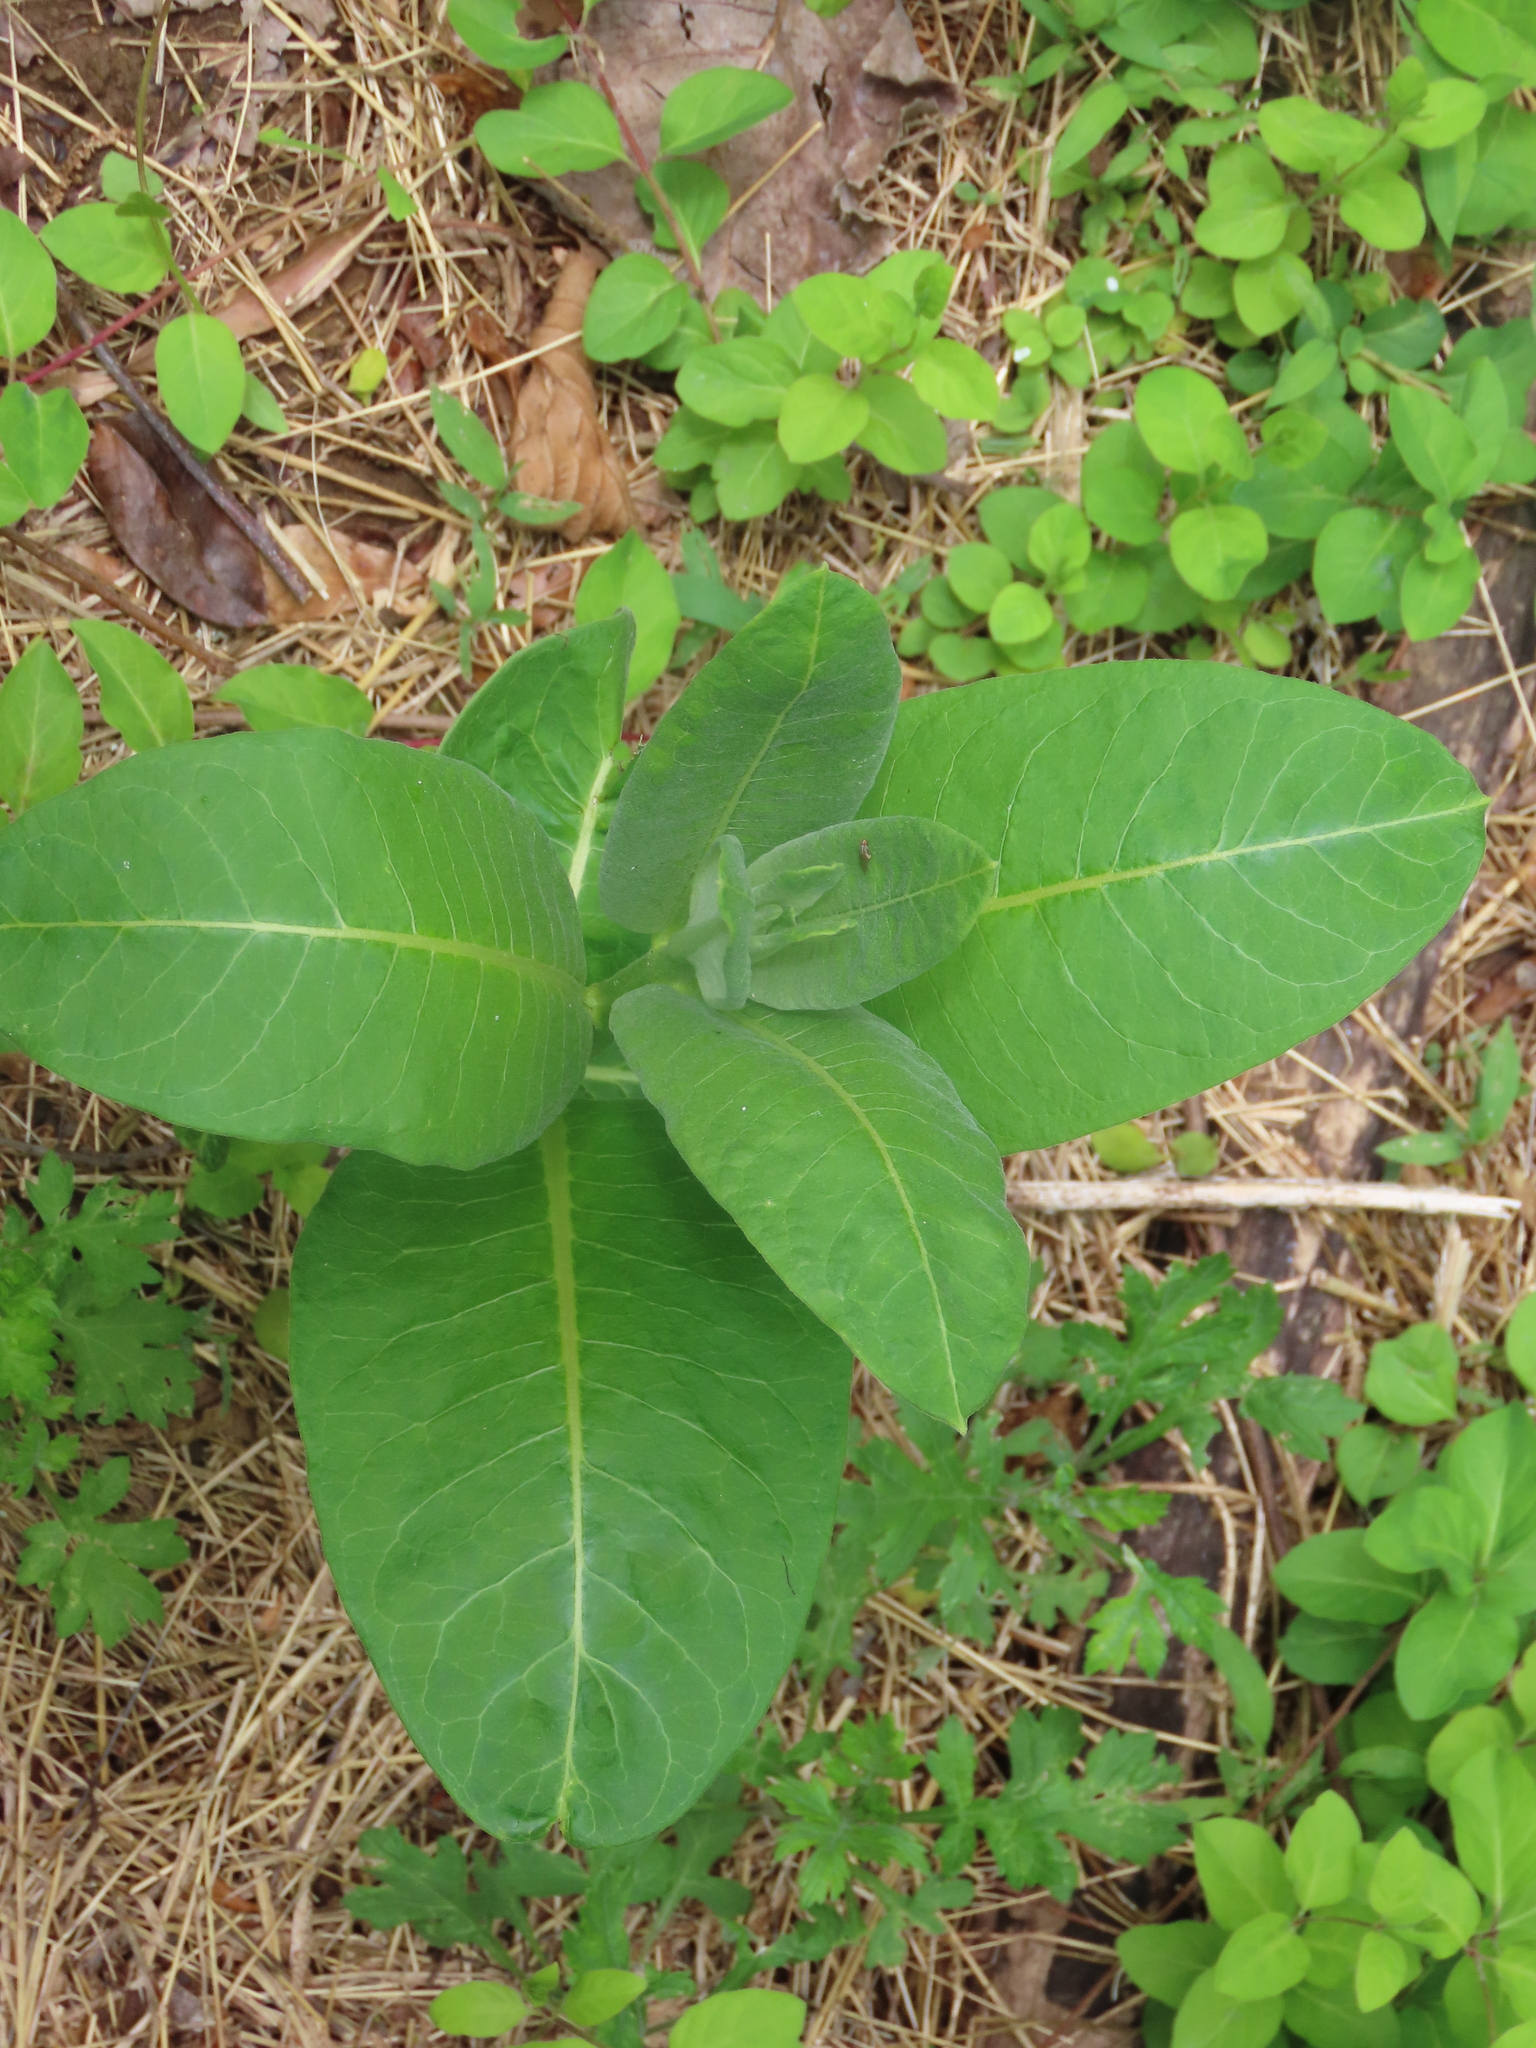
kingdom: Plantae
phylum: Tracheophyta
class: Magnoliopsida
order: Gentianales
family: Apocynaceae
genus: Asclepias
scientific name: Asclepias syriaca
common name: Common milkweed
